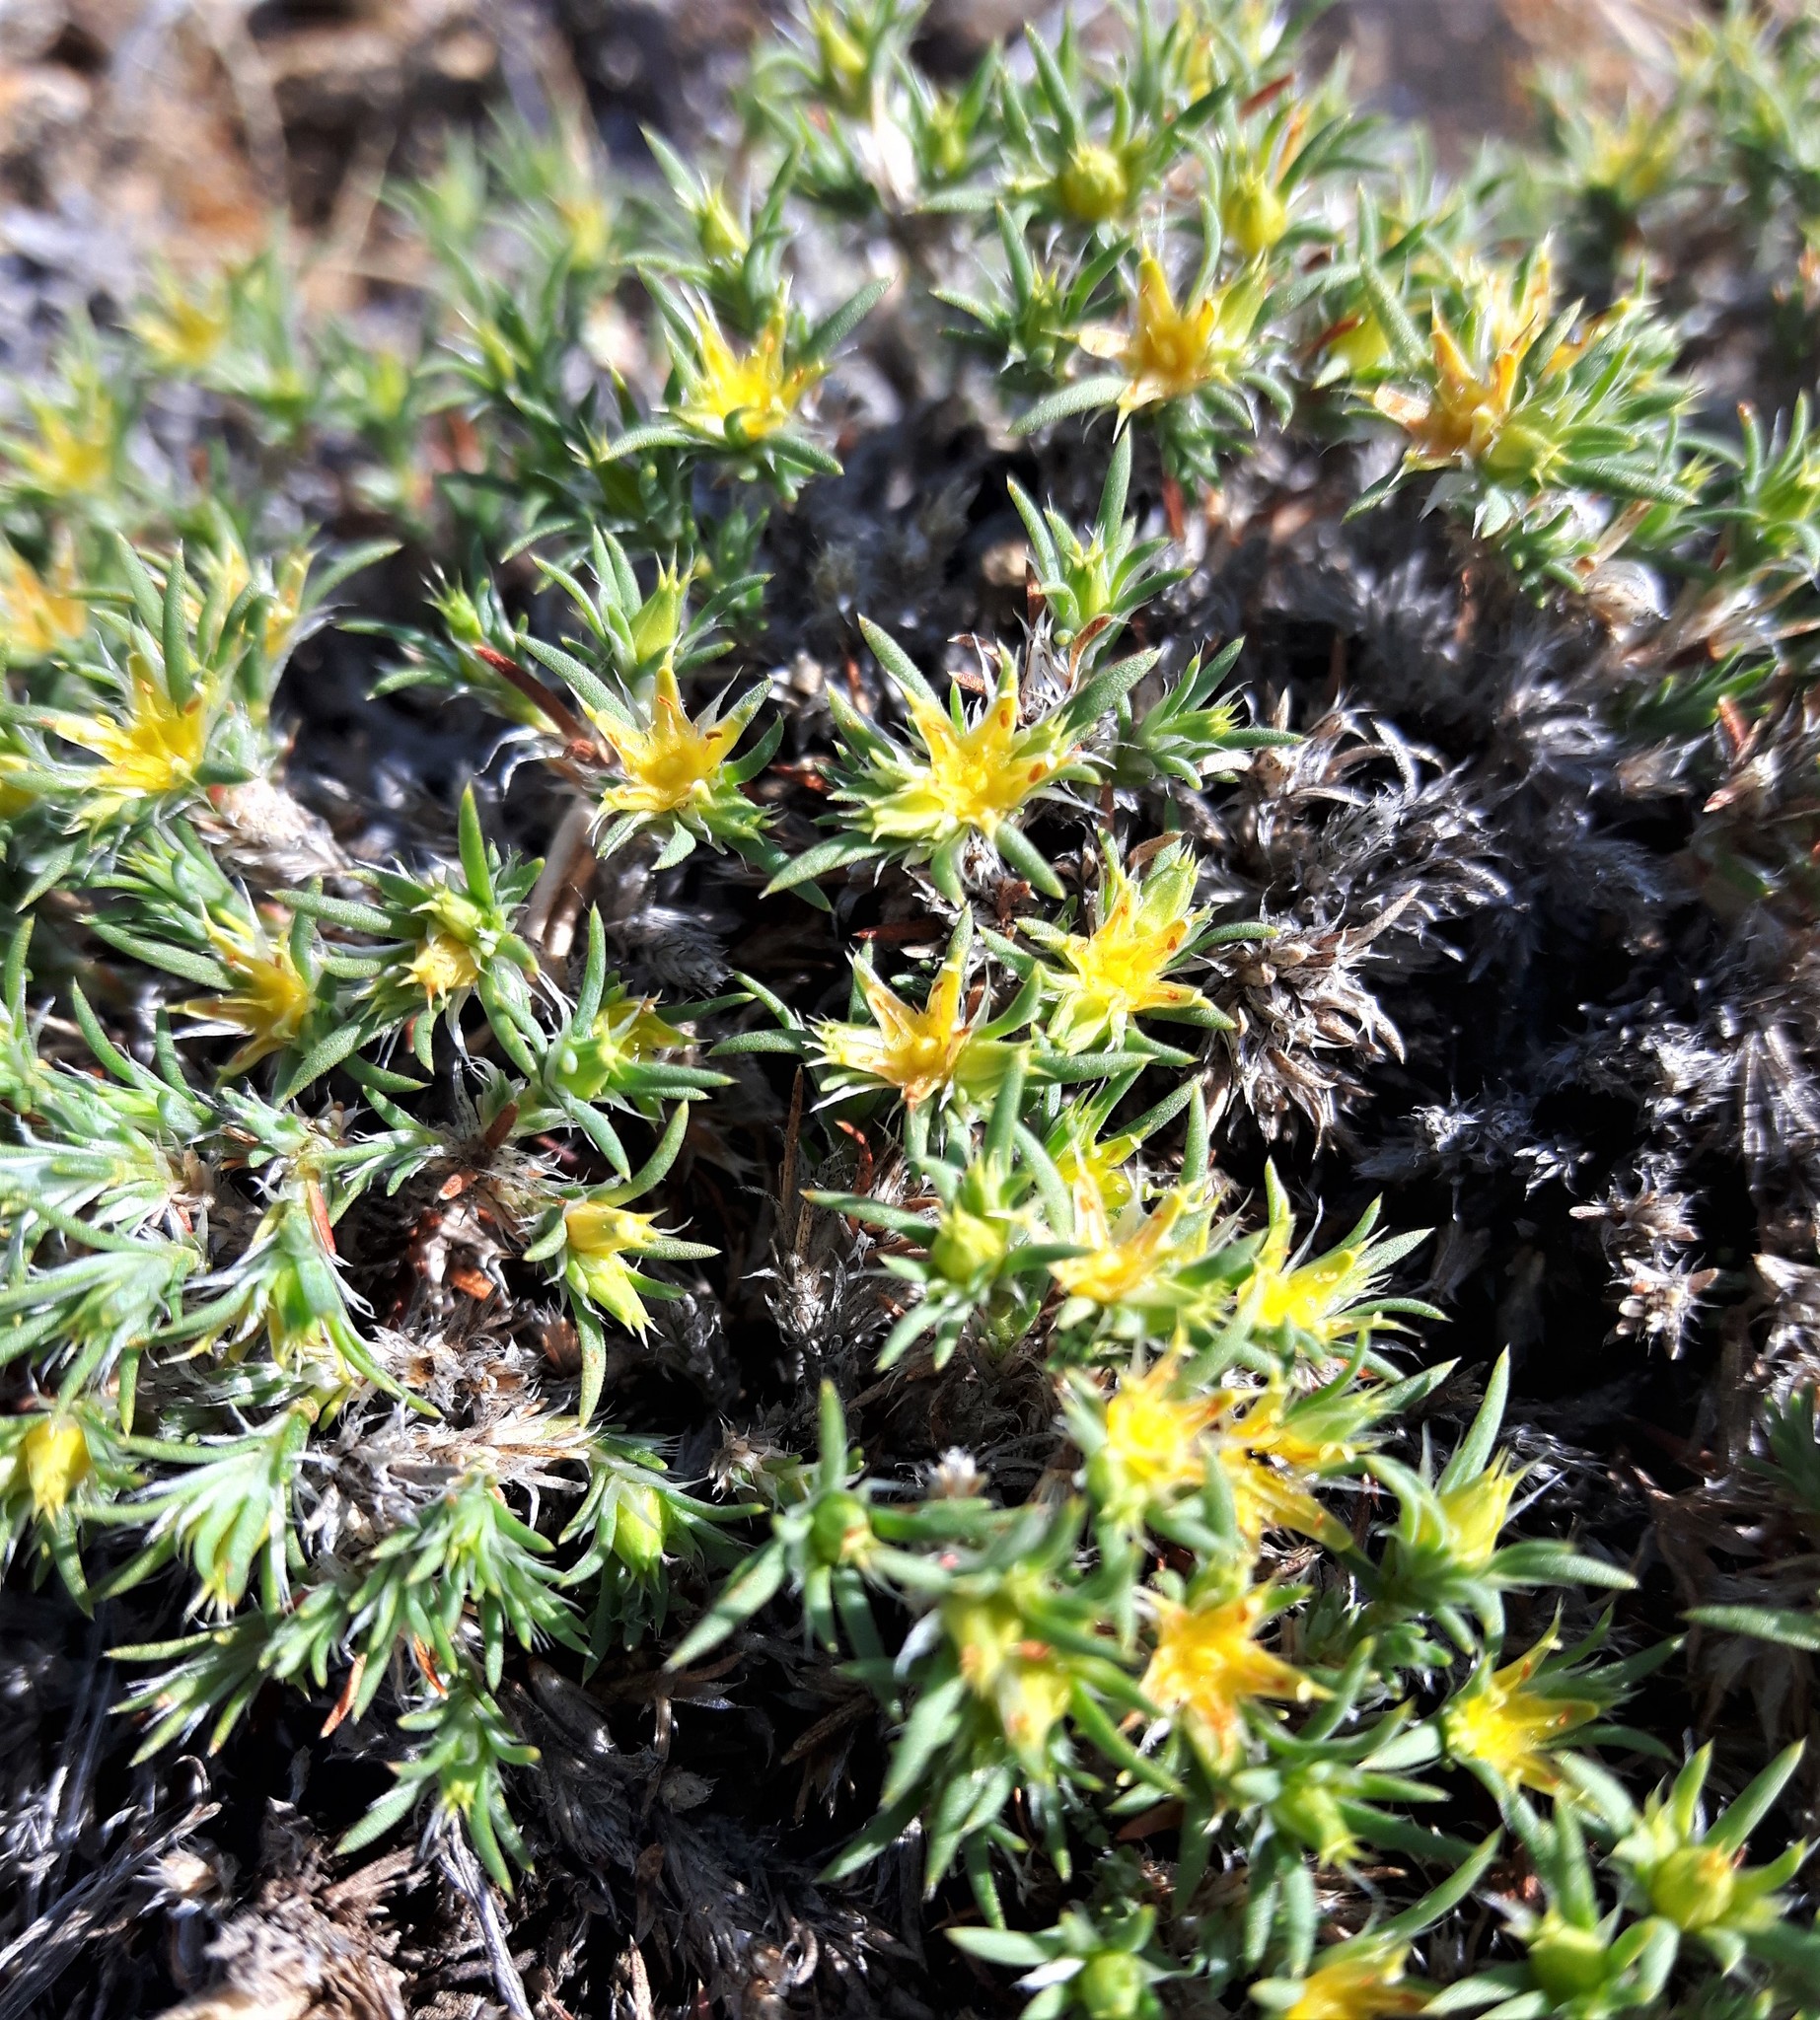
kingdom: Plantae
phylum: Tracheophyta
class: Magnoliopsida
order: Caryophyllales
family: Caryophyllaceae
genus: Paronychia
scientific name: Paronychia sessiliflora
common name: Creeping nailwort
